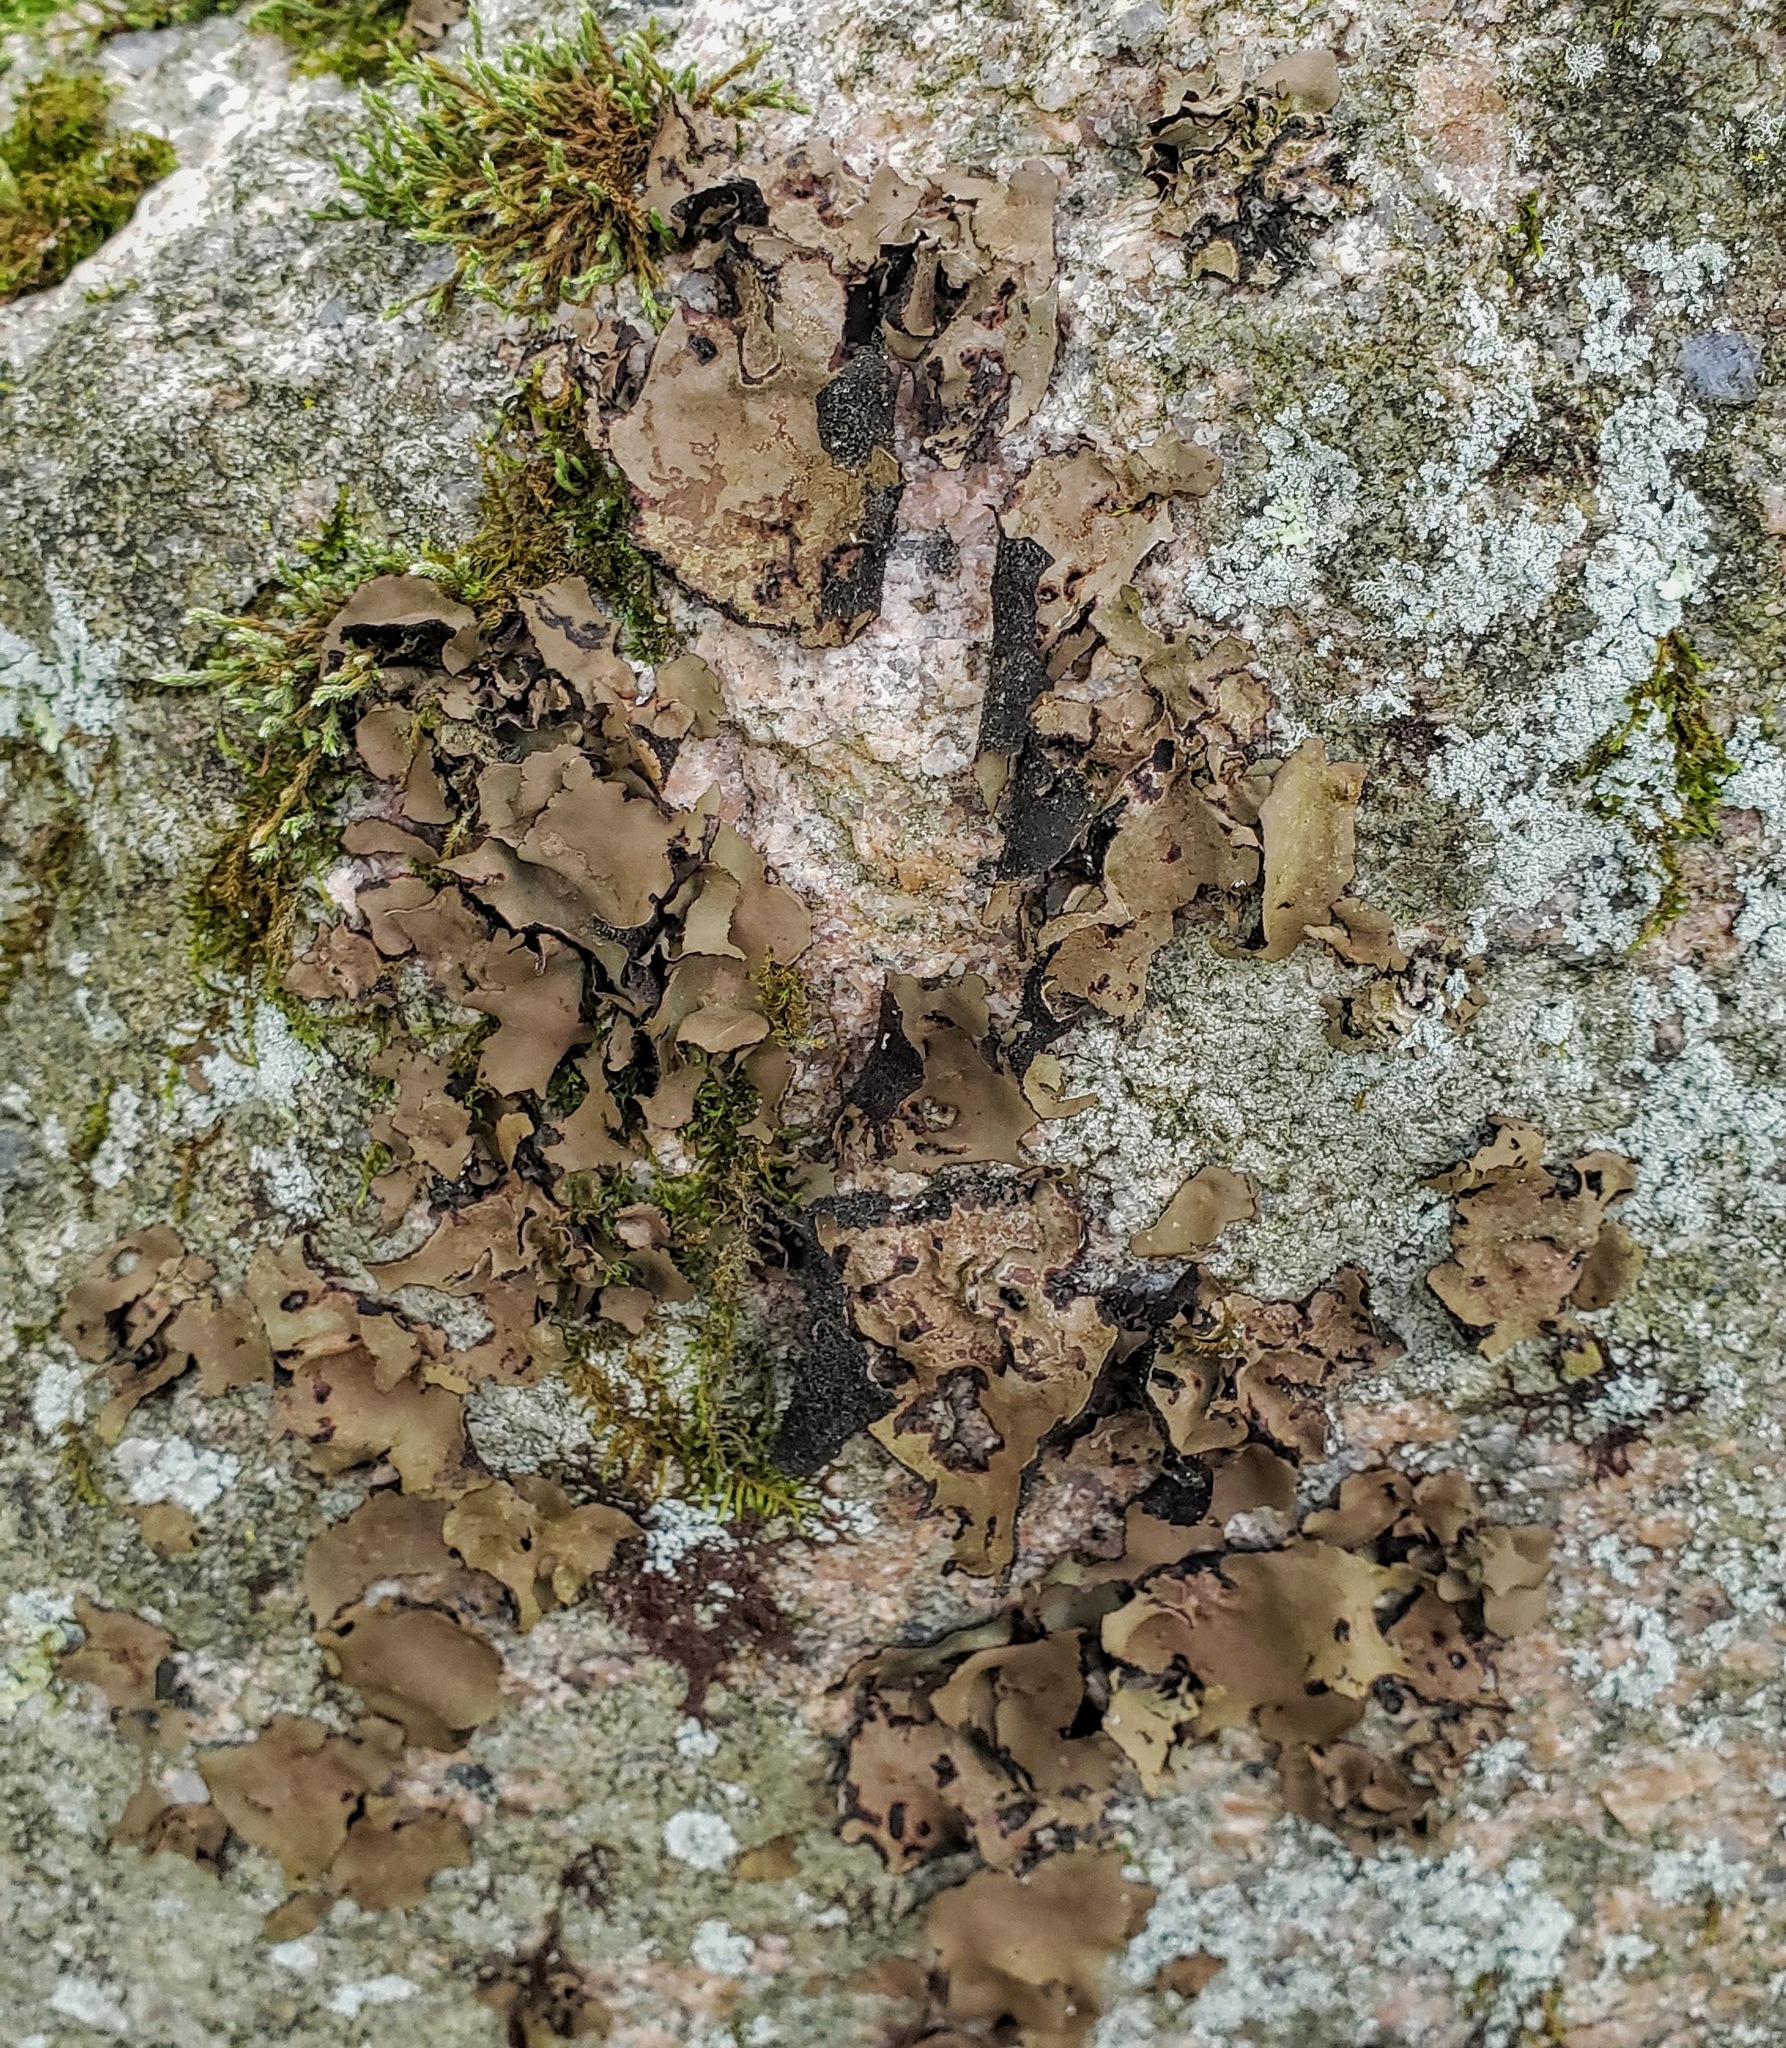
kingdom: Fungi
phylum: Ascomycota
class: Lecanoromycetes
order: Umbilicariales
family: Umbilicariaceae
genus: Umbilicaria
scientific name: Umbilicaria mammulata
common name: Smooth rock tripe
